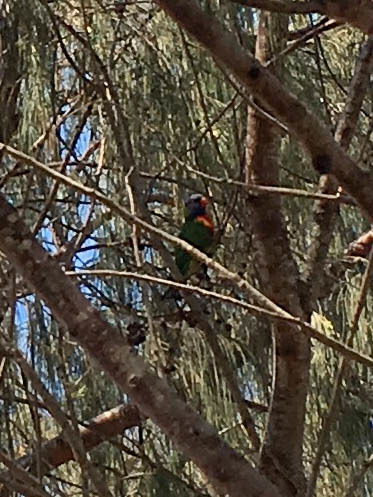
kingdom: Animalia
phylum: Chordata
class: Aves
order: Psittaciformes
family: Psittacidae
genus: Trichoglossus
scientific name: Trichoglossus haematodus
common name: Coconut lorikeet
